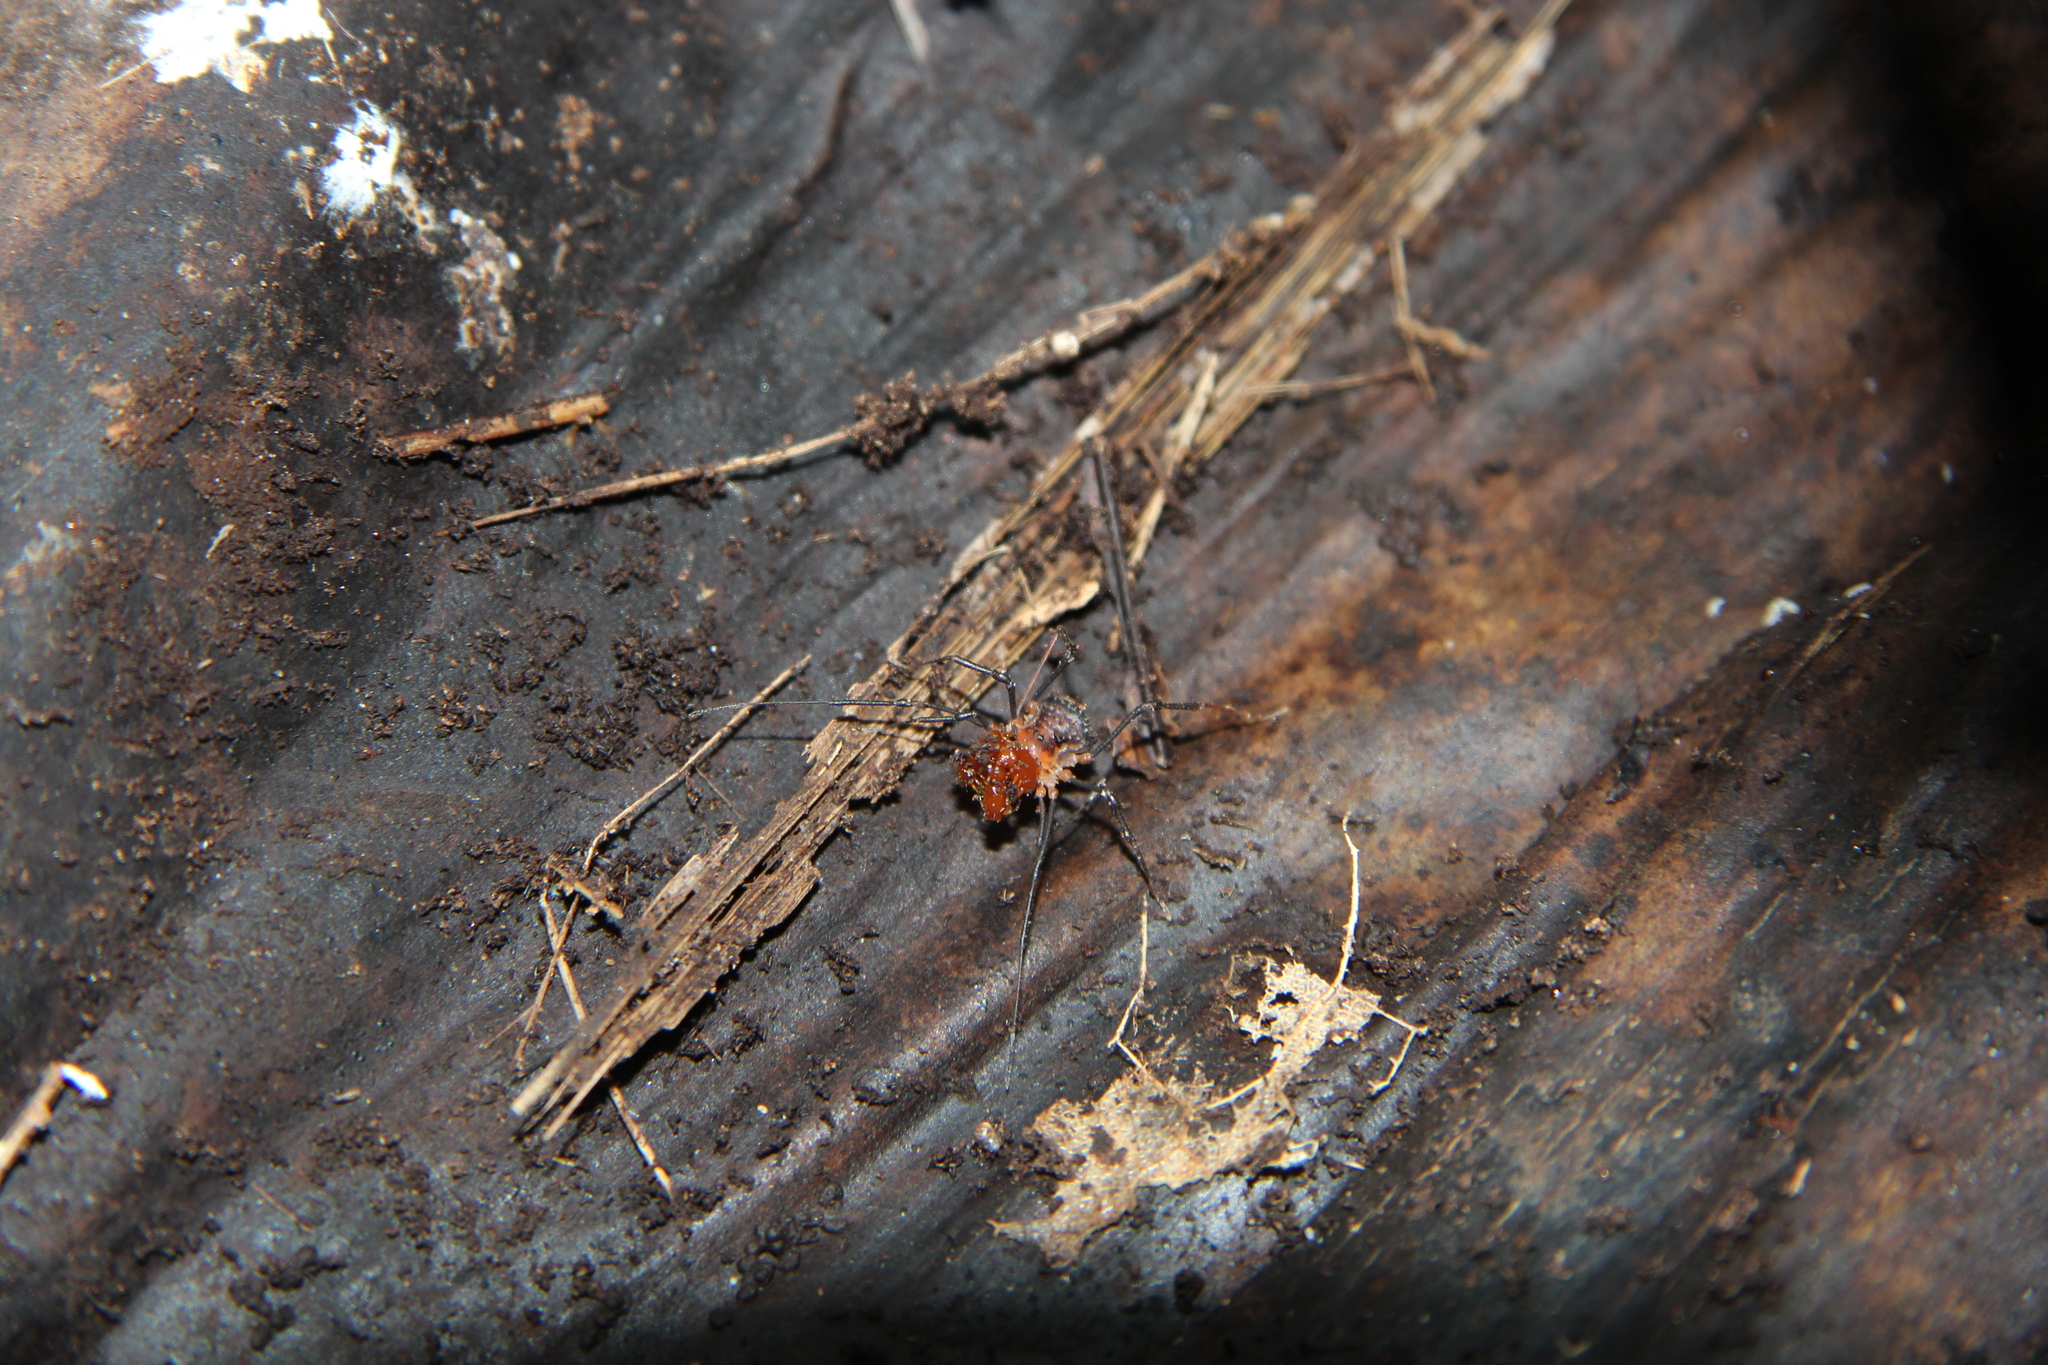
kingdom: Animalia
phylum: Arthropoda
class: Arachnida
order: Opiliones
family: Triaenonychidae
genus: Sorensenella
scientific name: Sorensenella prehensor
